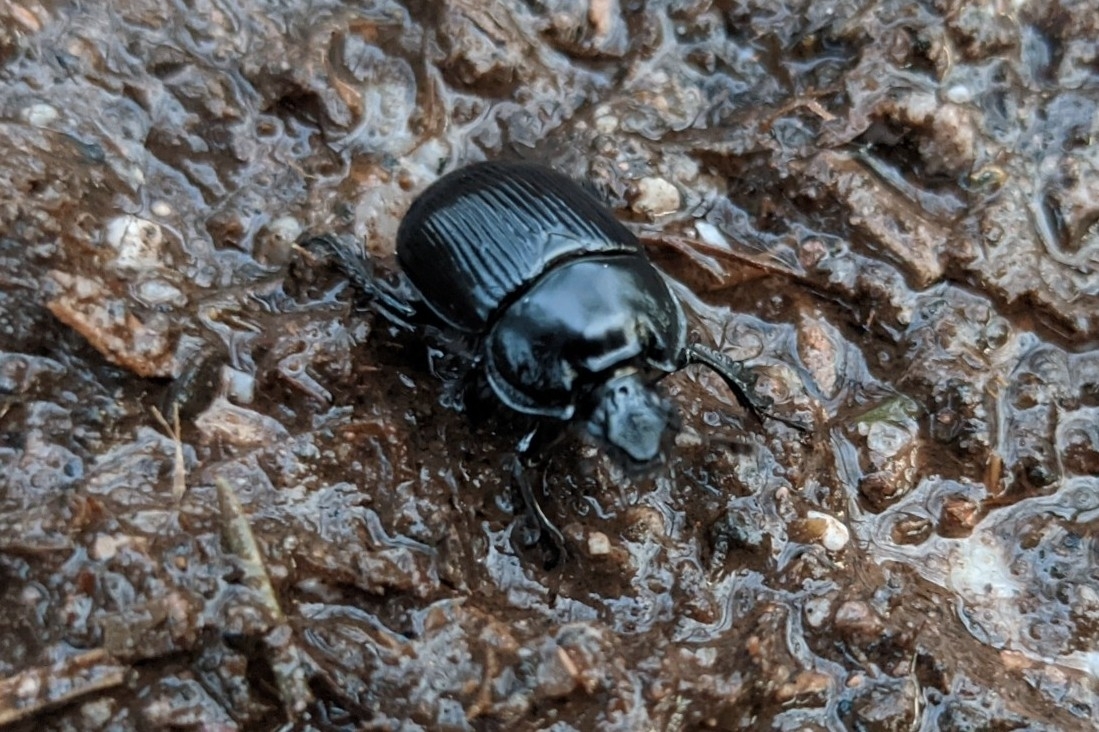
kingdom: Animalia
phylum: Arthropoda
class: Insecta
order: Coleoptera
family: Geotrupidae
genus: Typhaeus
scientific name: Typhaeus typhoeus
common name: Minotaur beetle
